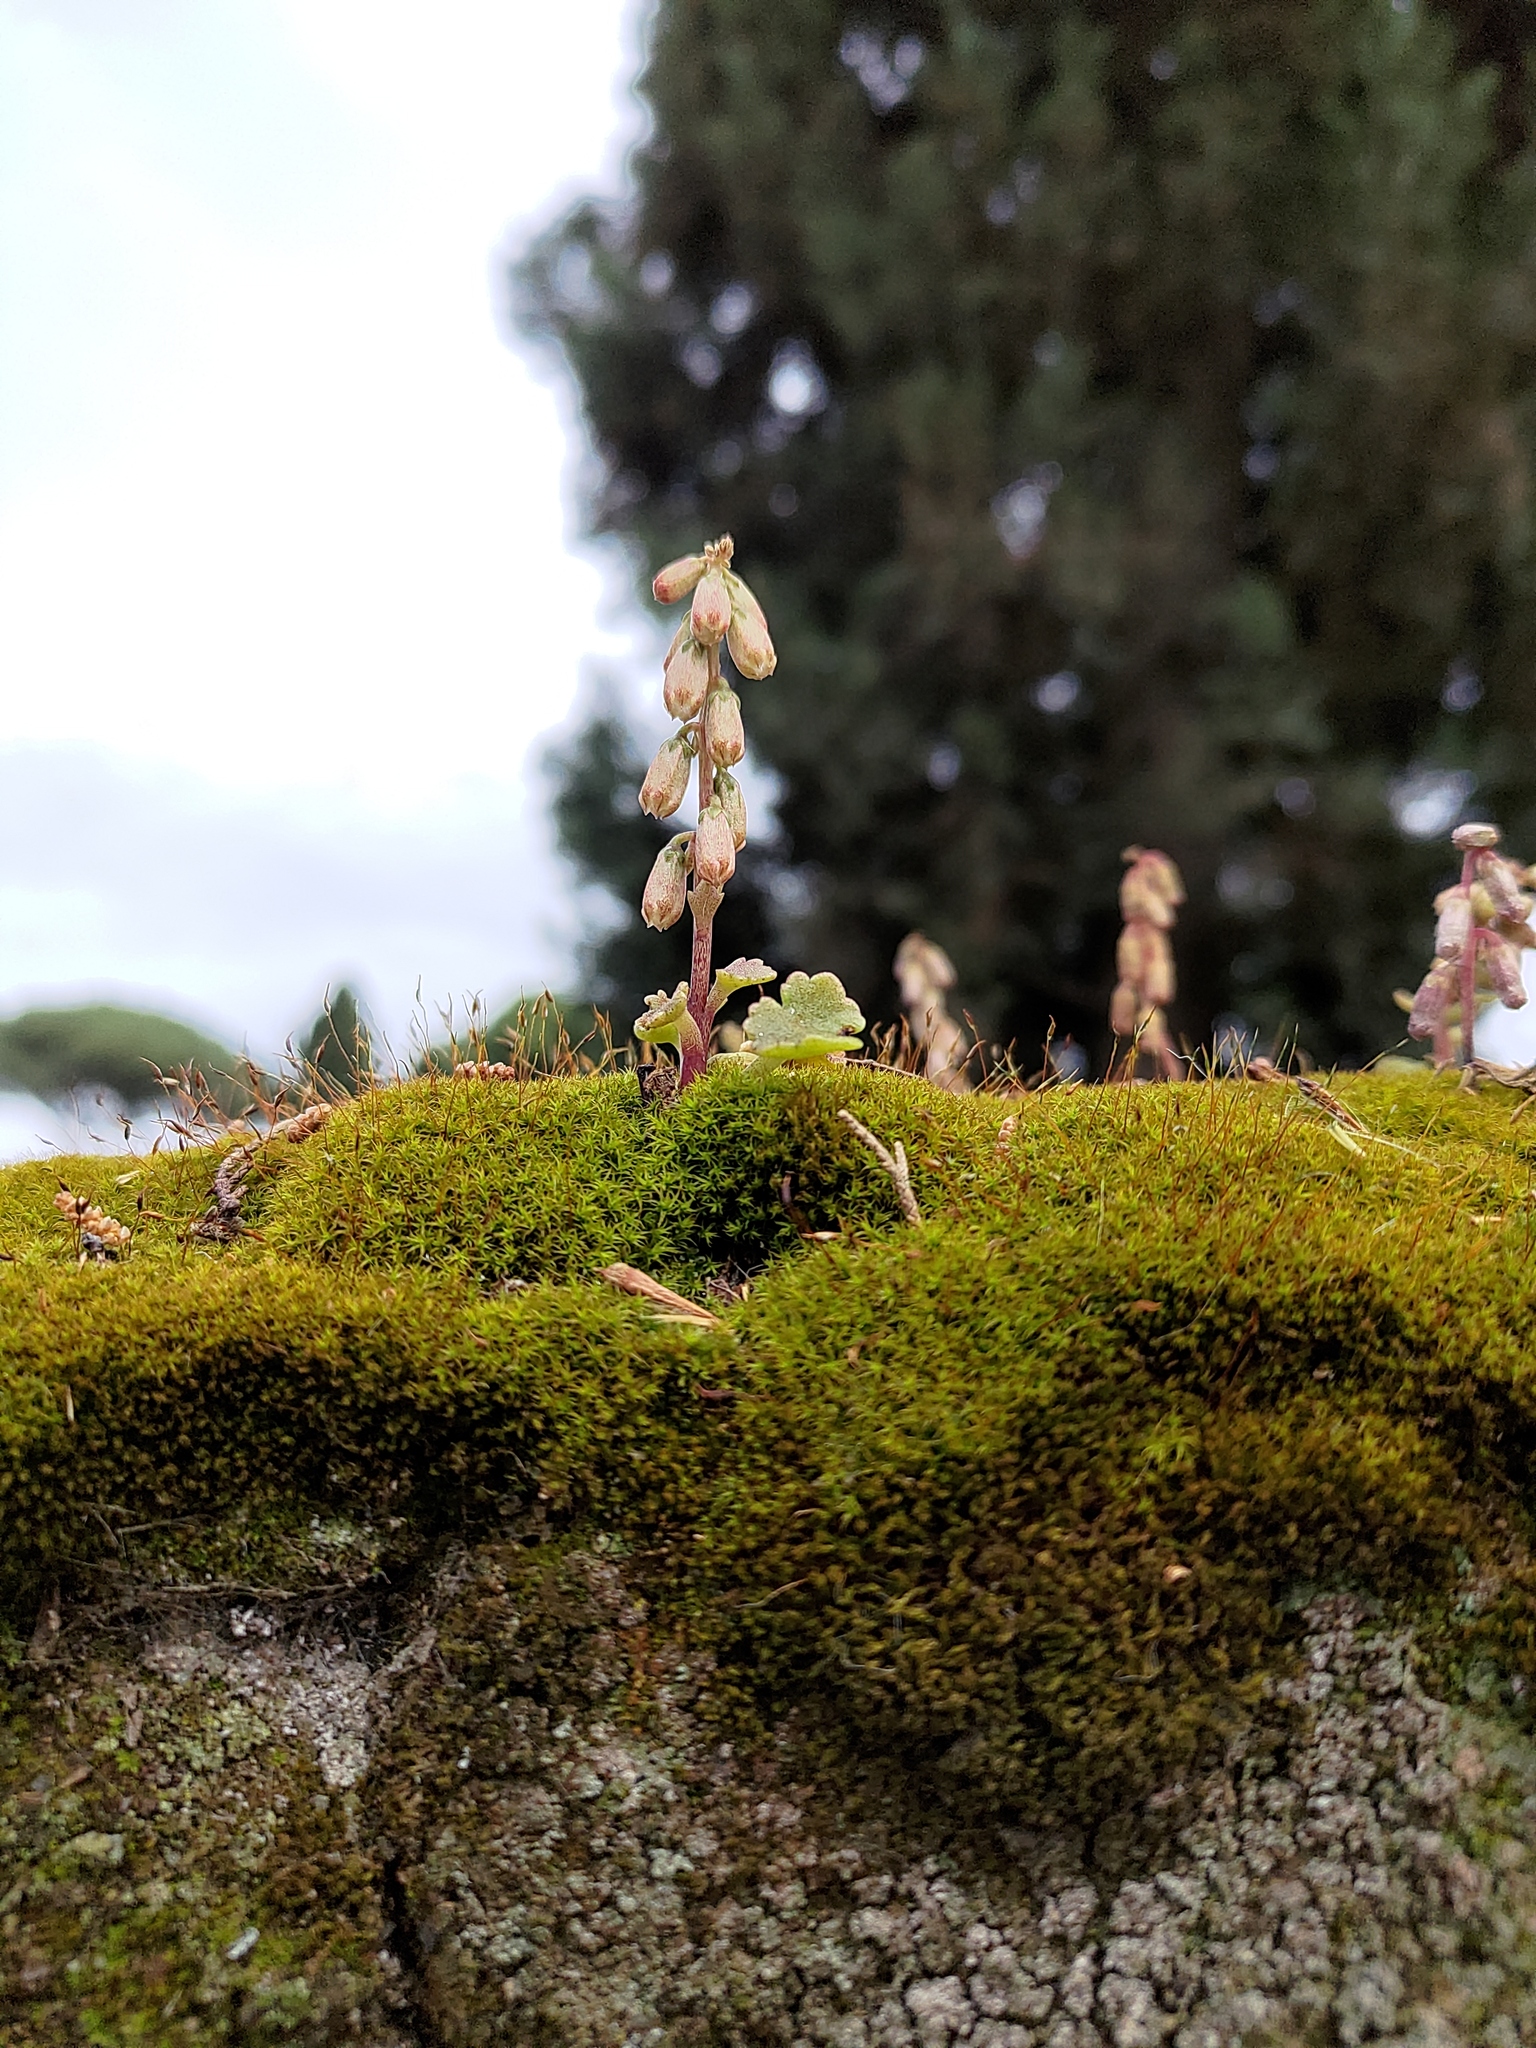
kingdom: Plantae
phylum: Tracheophyta
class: Magnoliopsida
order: Saxifragales
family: Crassulaceae
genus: Umbilicus
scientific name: Umbilicus rupestris
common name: Navelwort
